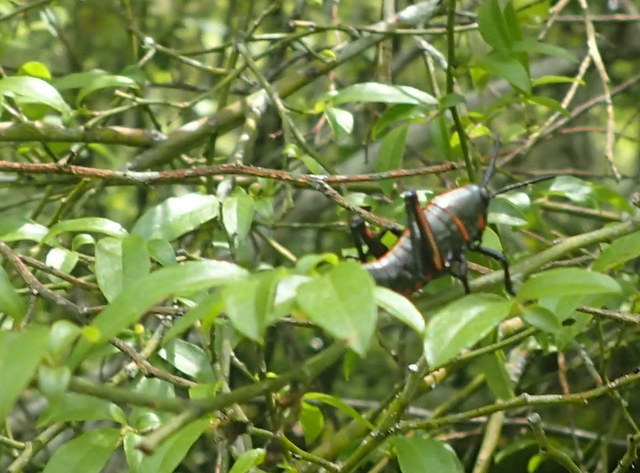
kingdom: Animalia
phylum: Arthropoda
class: Insecta
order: Orthoptera
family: Romaleidae
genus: Romalea
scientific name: Romalea microptera
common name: Eastern lubber grasshopper
